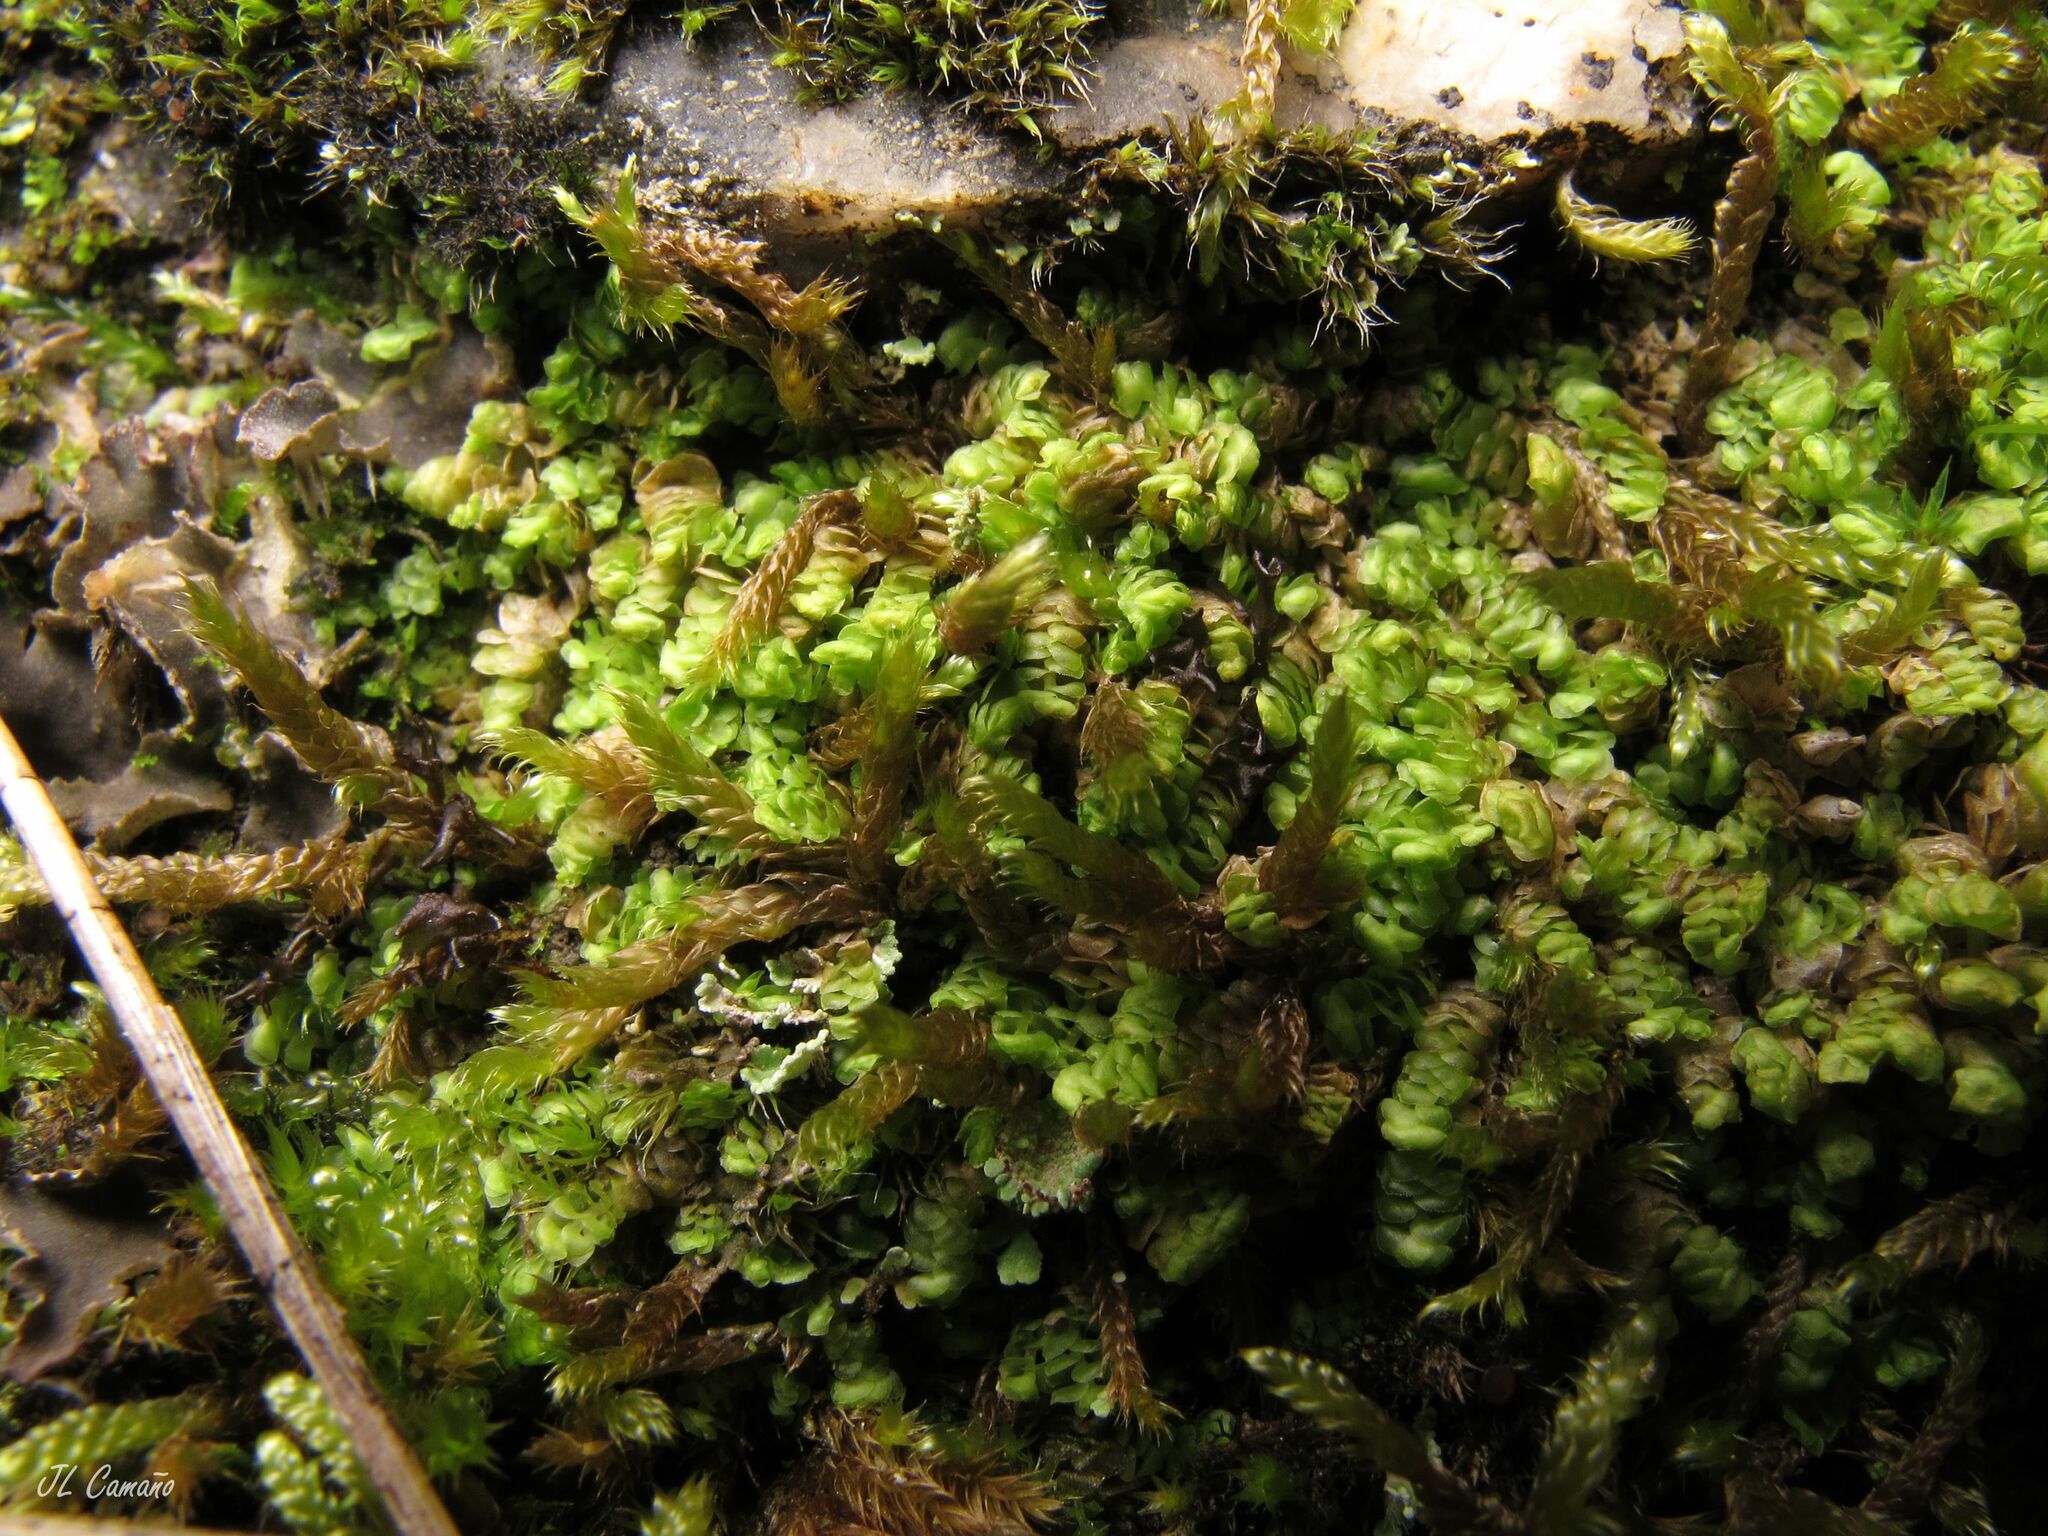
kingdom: Plantae
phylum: Marchantiophyta
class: Jungermanniopsida
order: Jungermanniales
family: Scapaniaceae
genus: Scapania
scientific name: Scapania compacta
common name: Thick-set earwort
